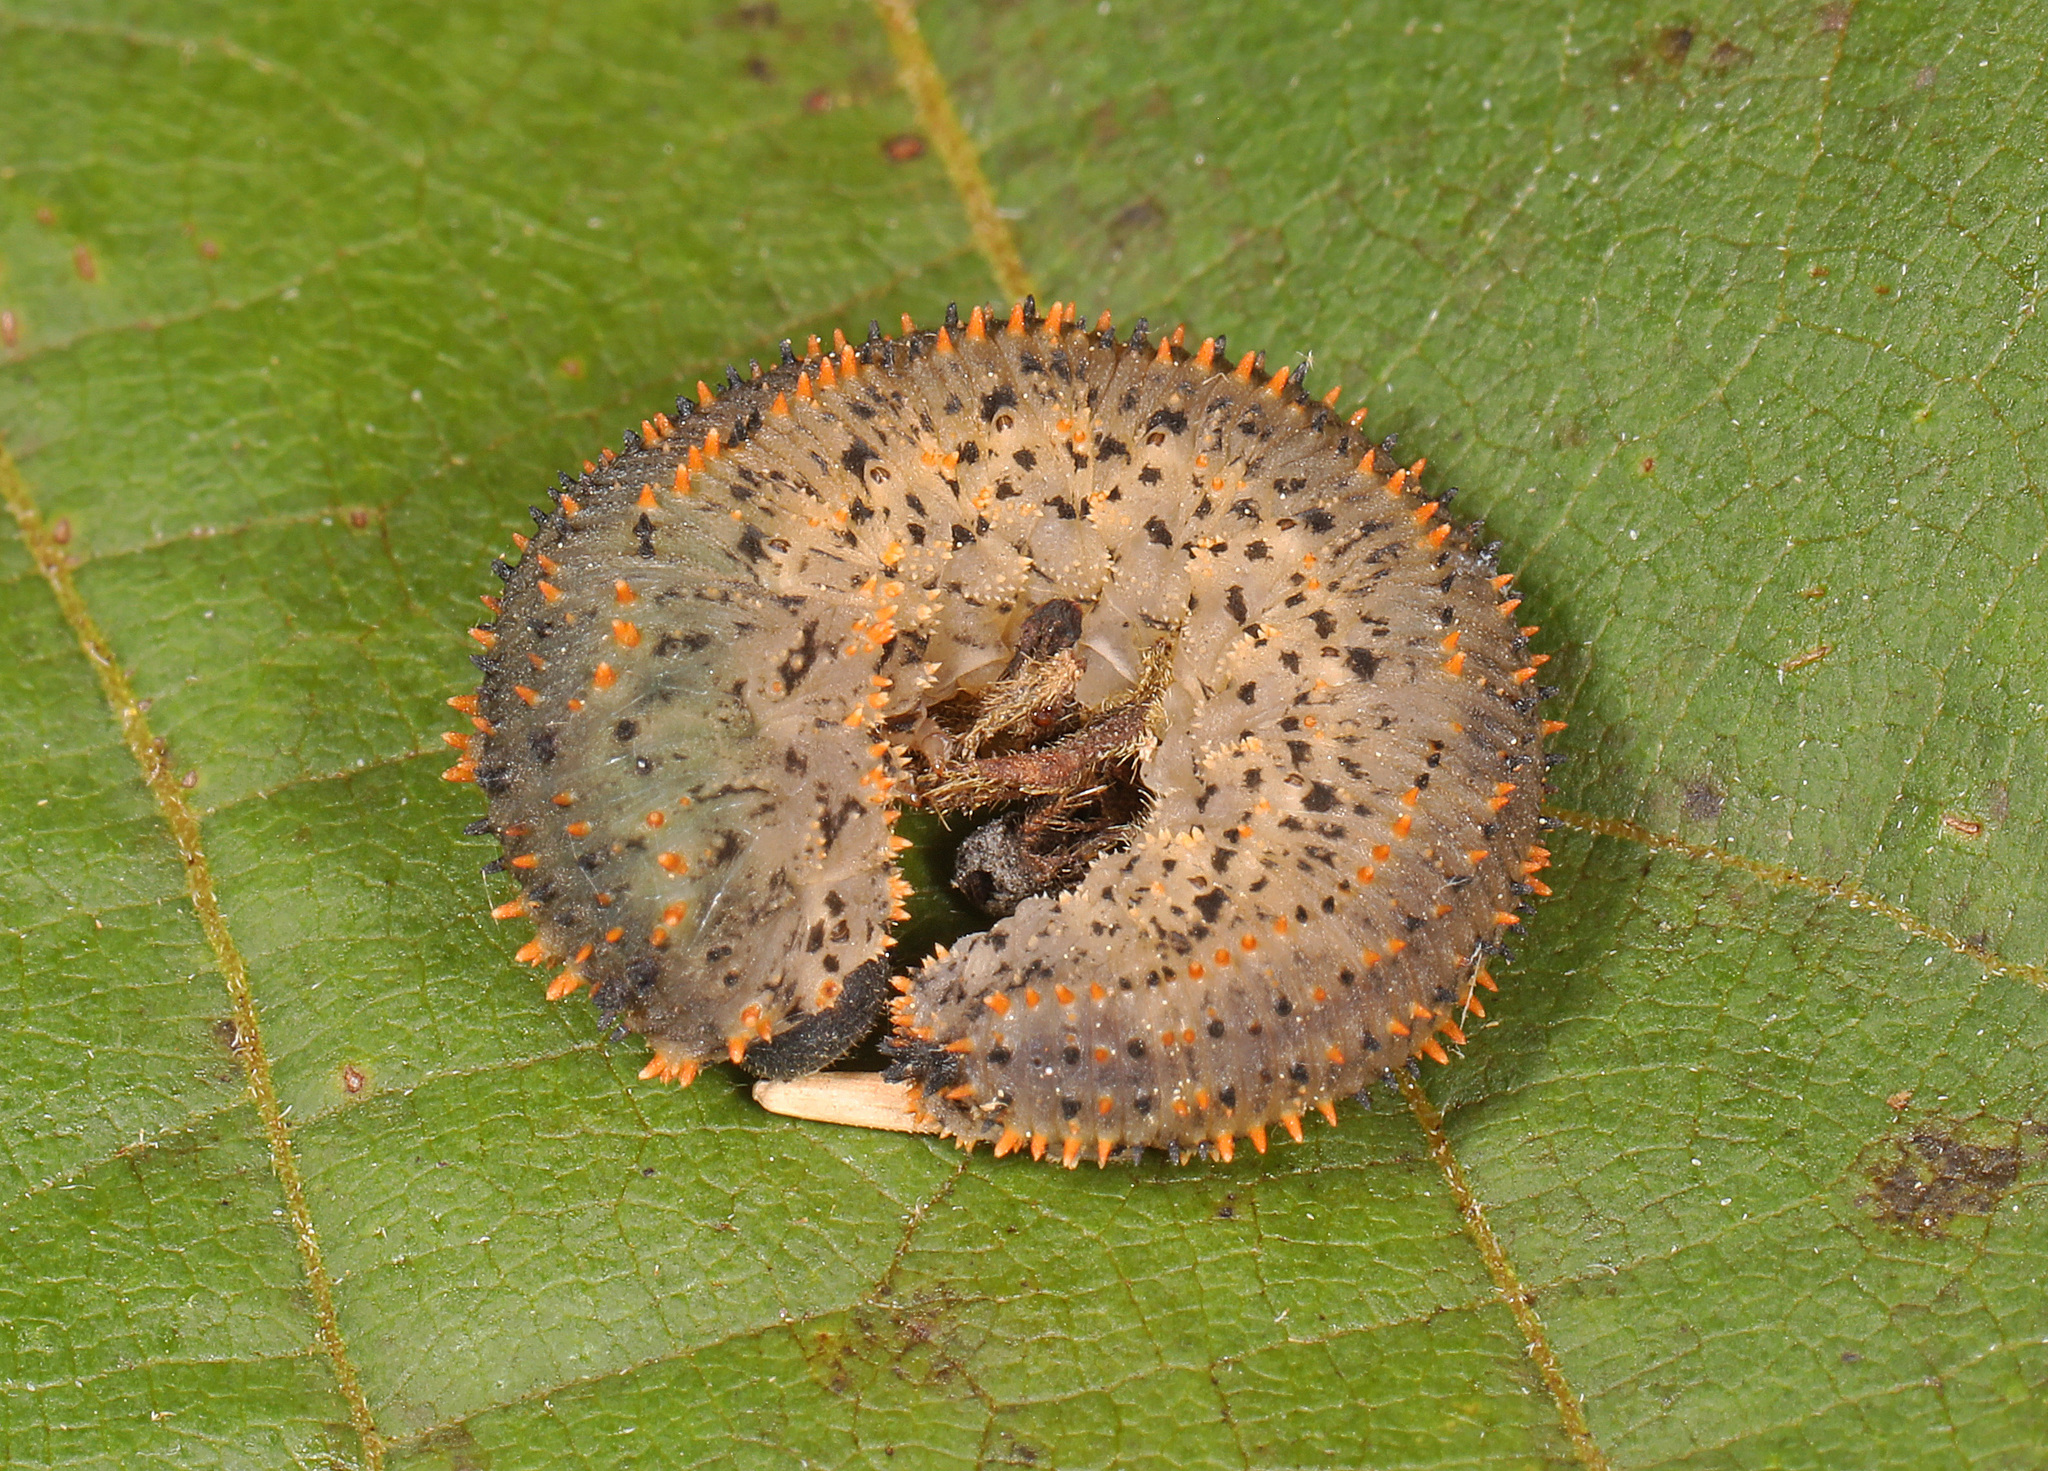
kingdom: Animalia
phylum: Arthropoda
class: Insecta
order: Hymenoptera
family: Tenthredinidae
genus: Lagium
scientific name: Lagium atroviolaceum
